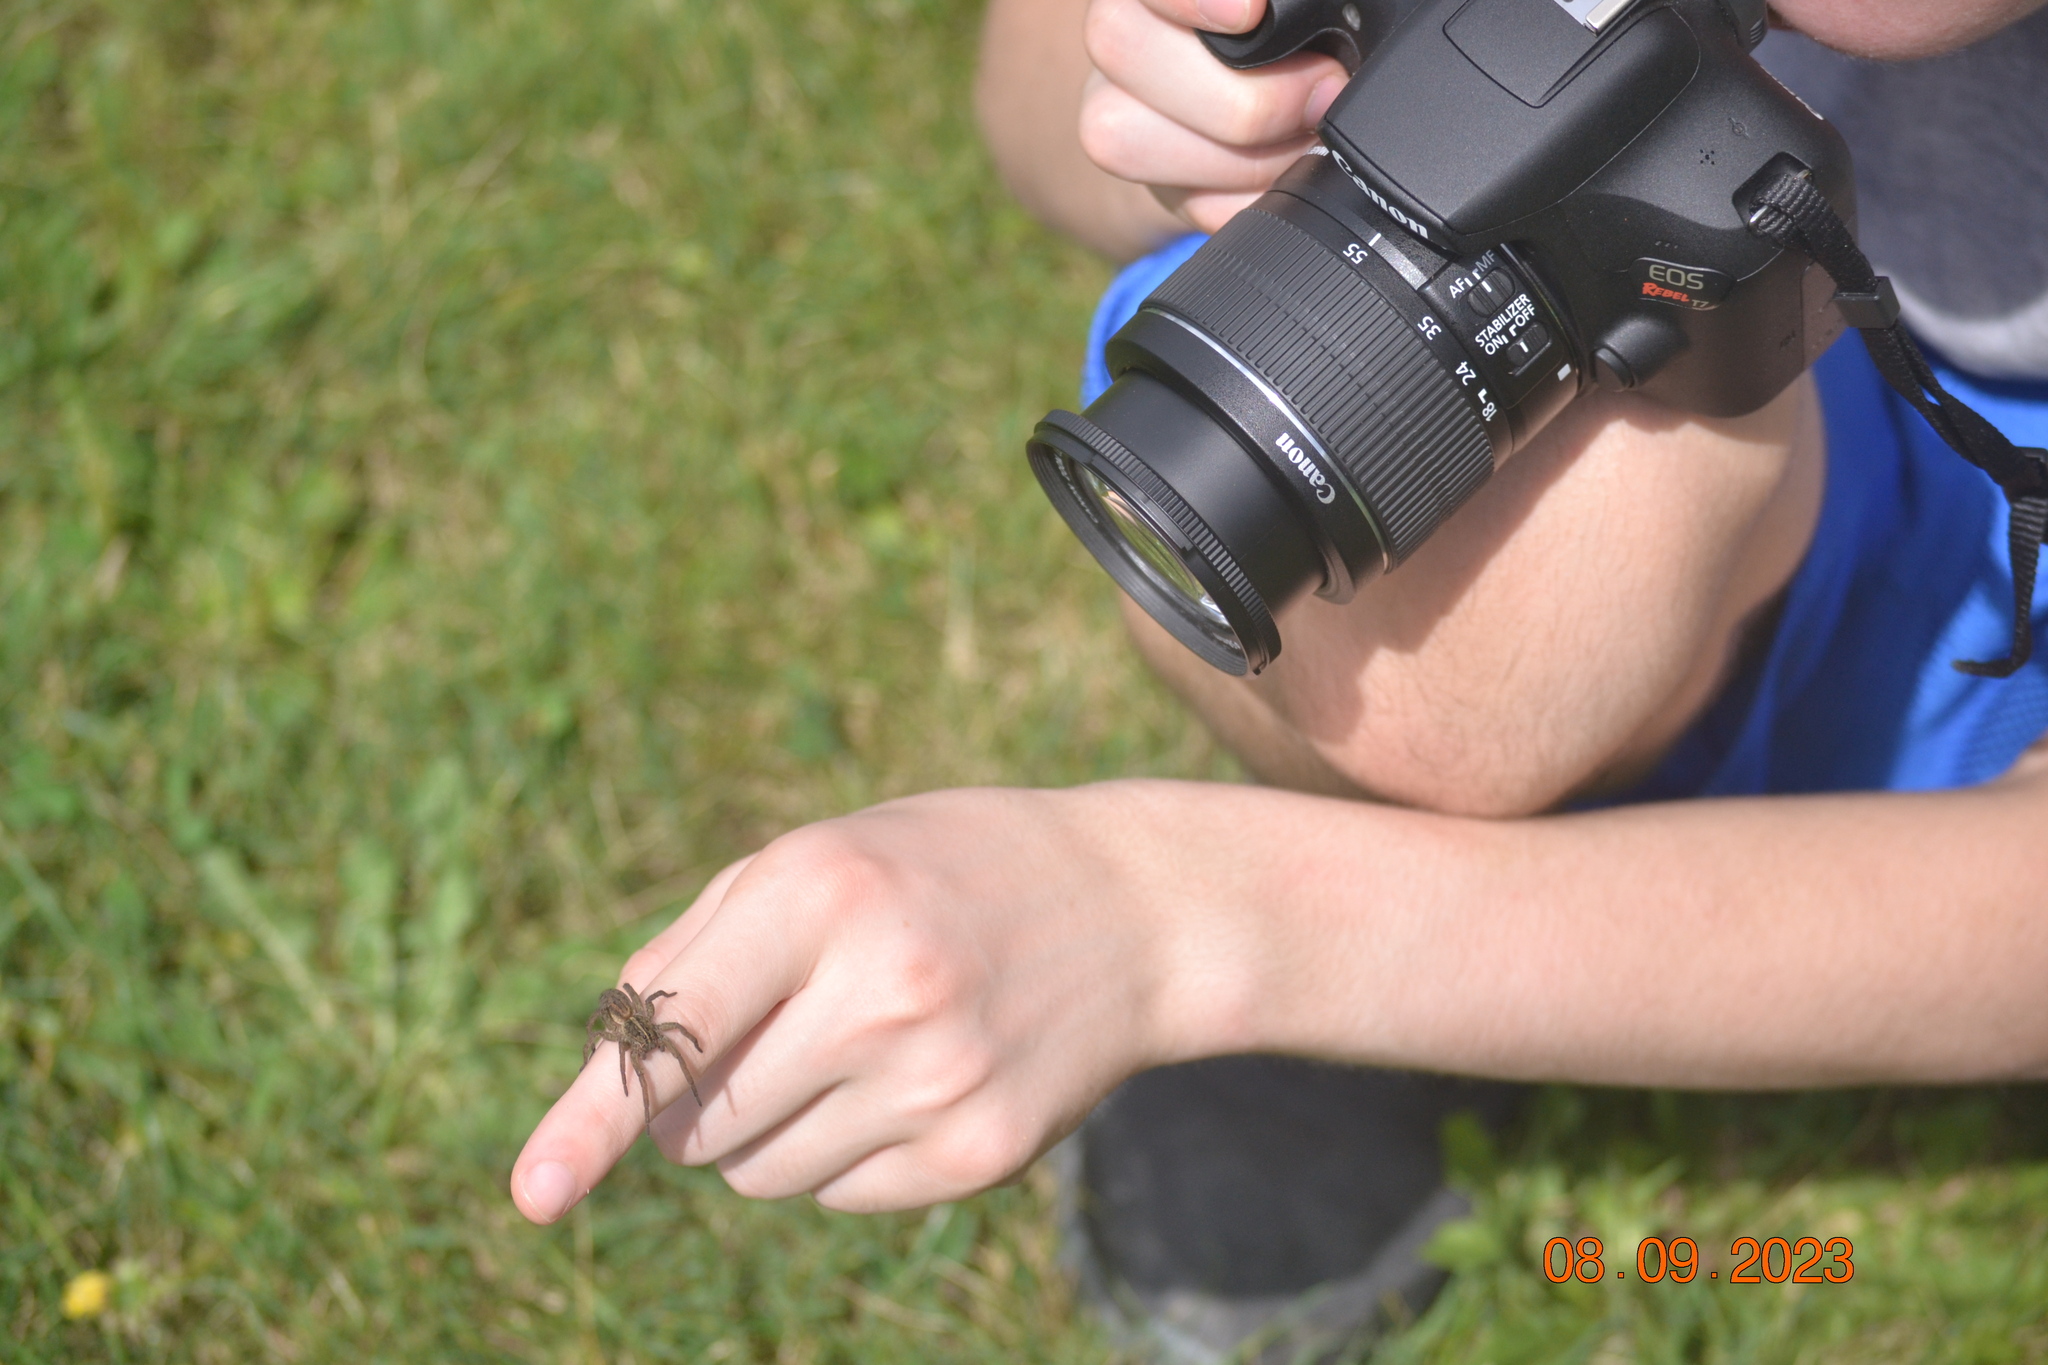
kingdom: Animalia
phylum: Arthropoda
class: Arachnida
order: Araneae
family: Lycosidae
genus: Tigrosa
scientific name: Tigrosa helluo
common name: Wetland giant wolf spider
